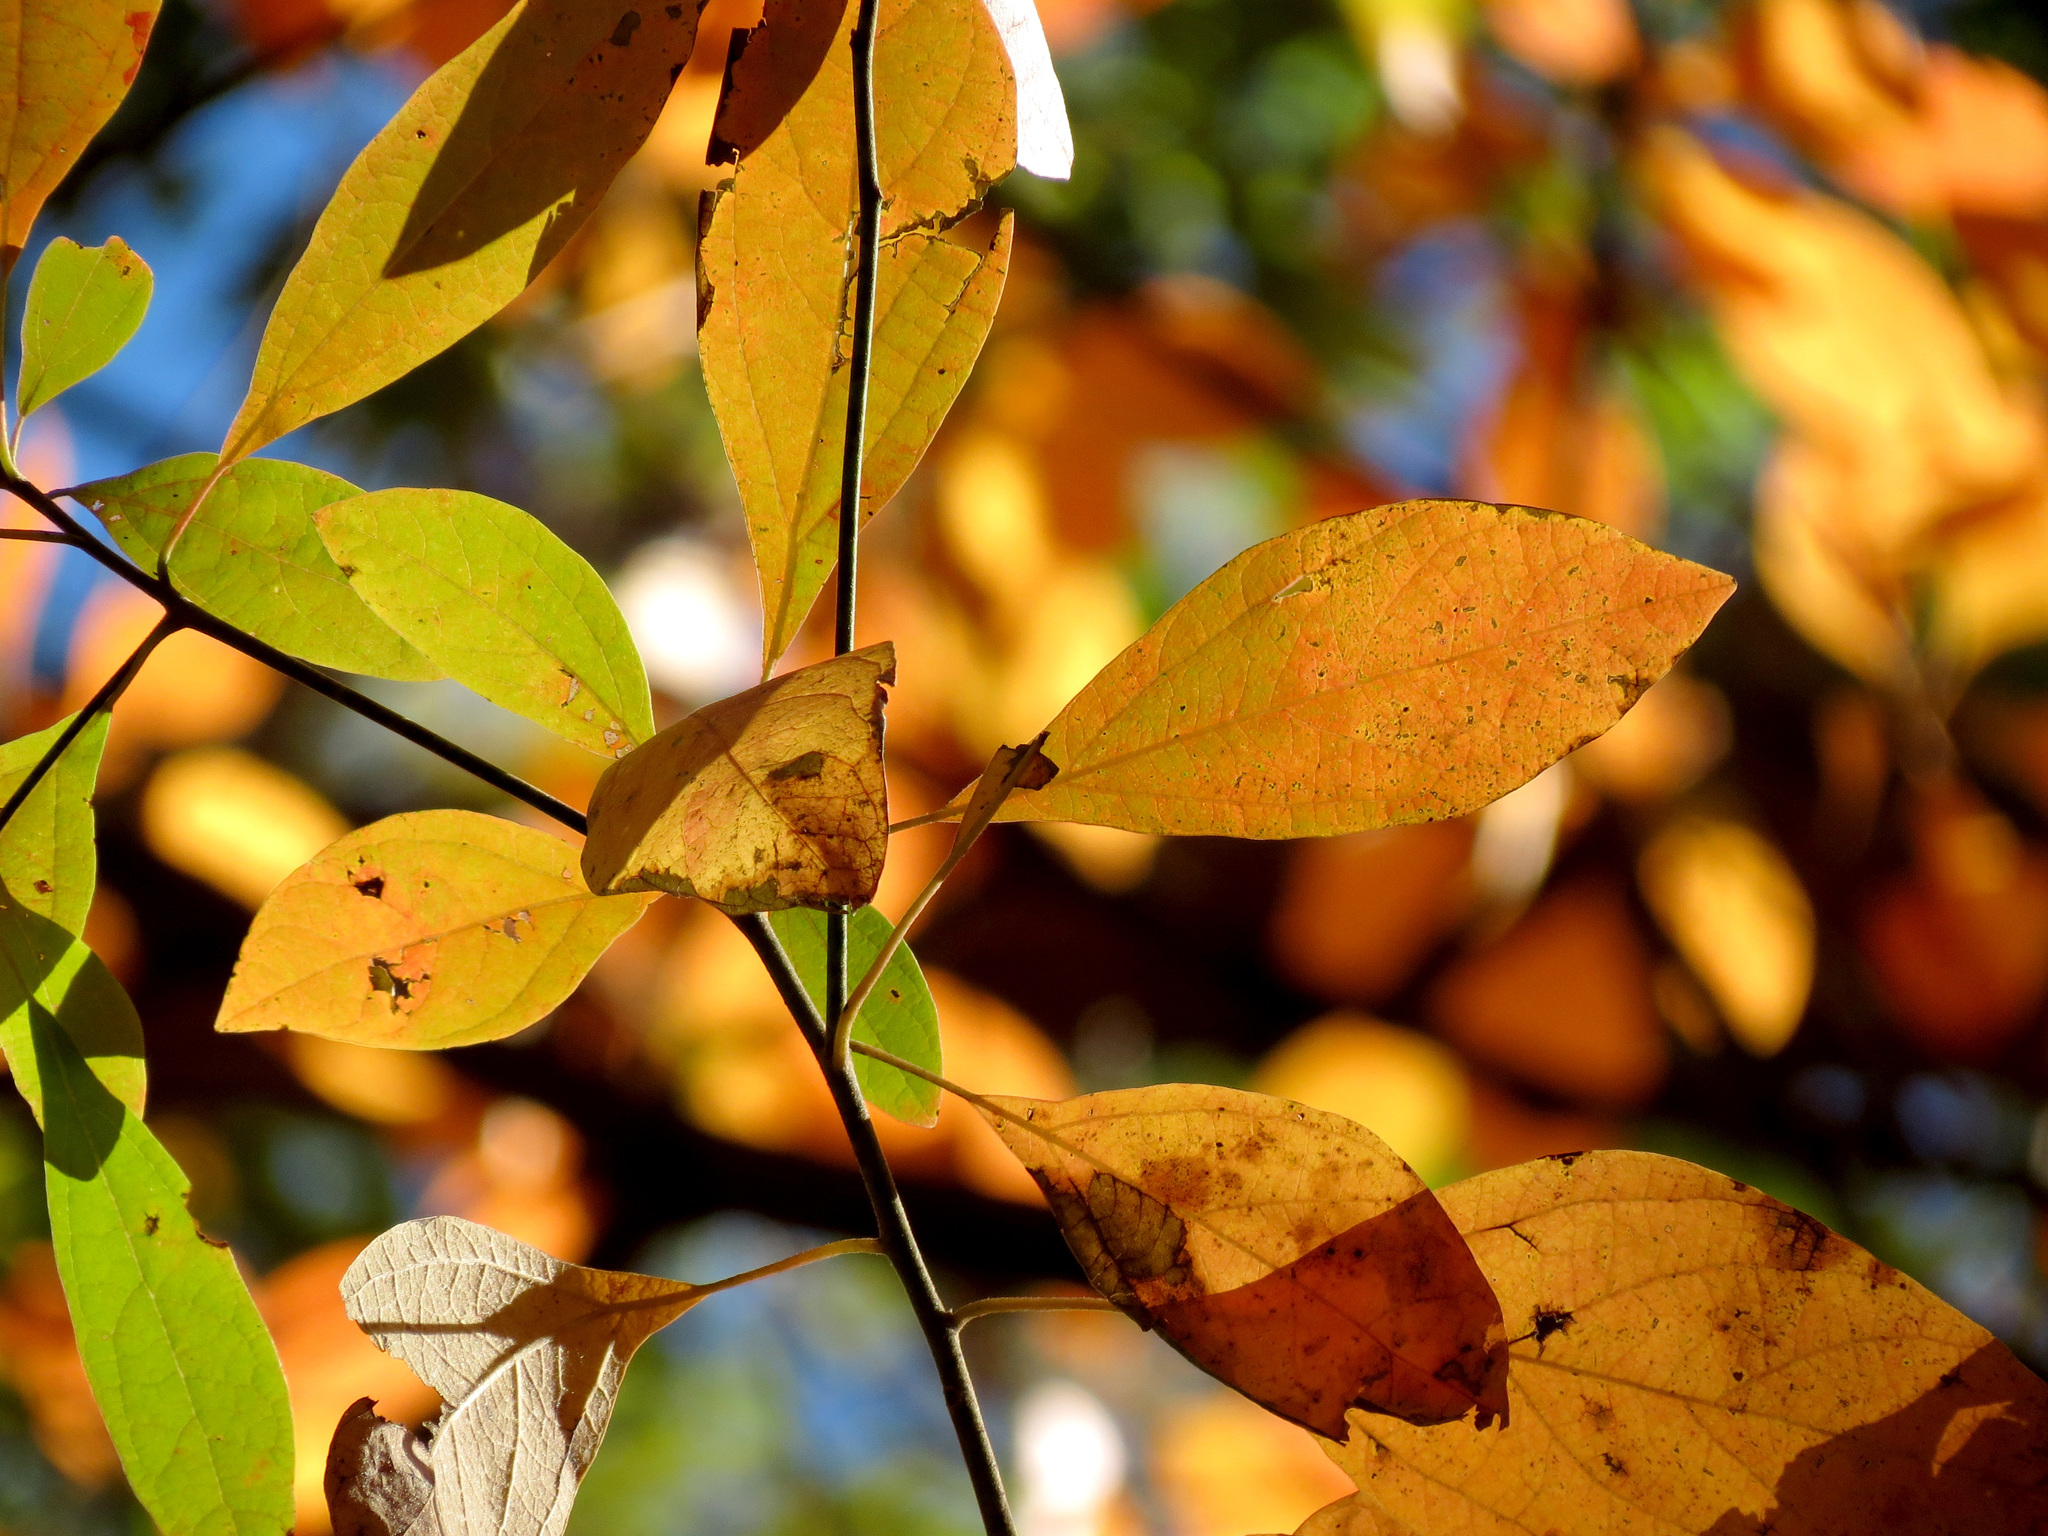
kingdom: Plantae
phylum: Tracheophyta
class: Magnoliopsida
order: Cornales
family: Nyssaceae
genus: Nyssa
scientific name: Nyssa sylvatica
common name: Black tupelo
